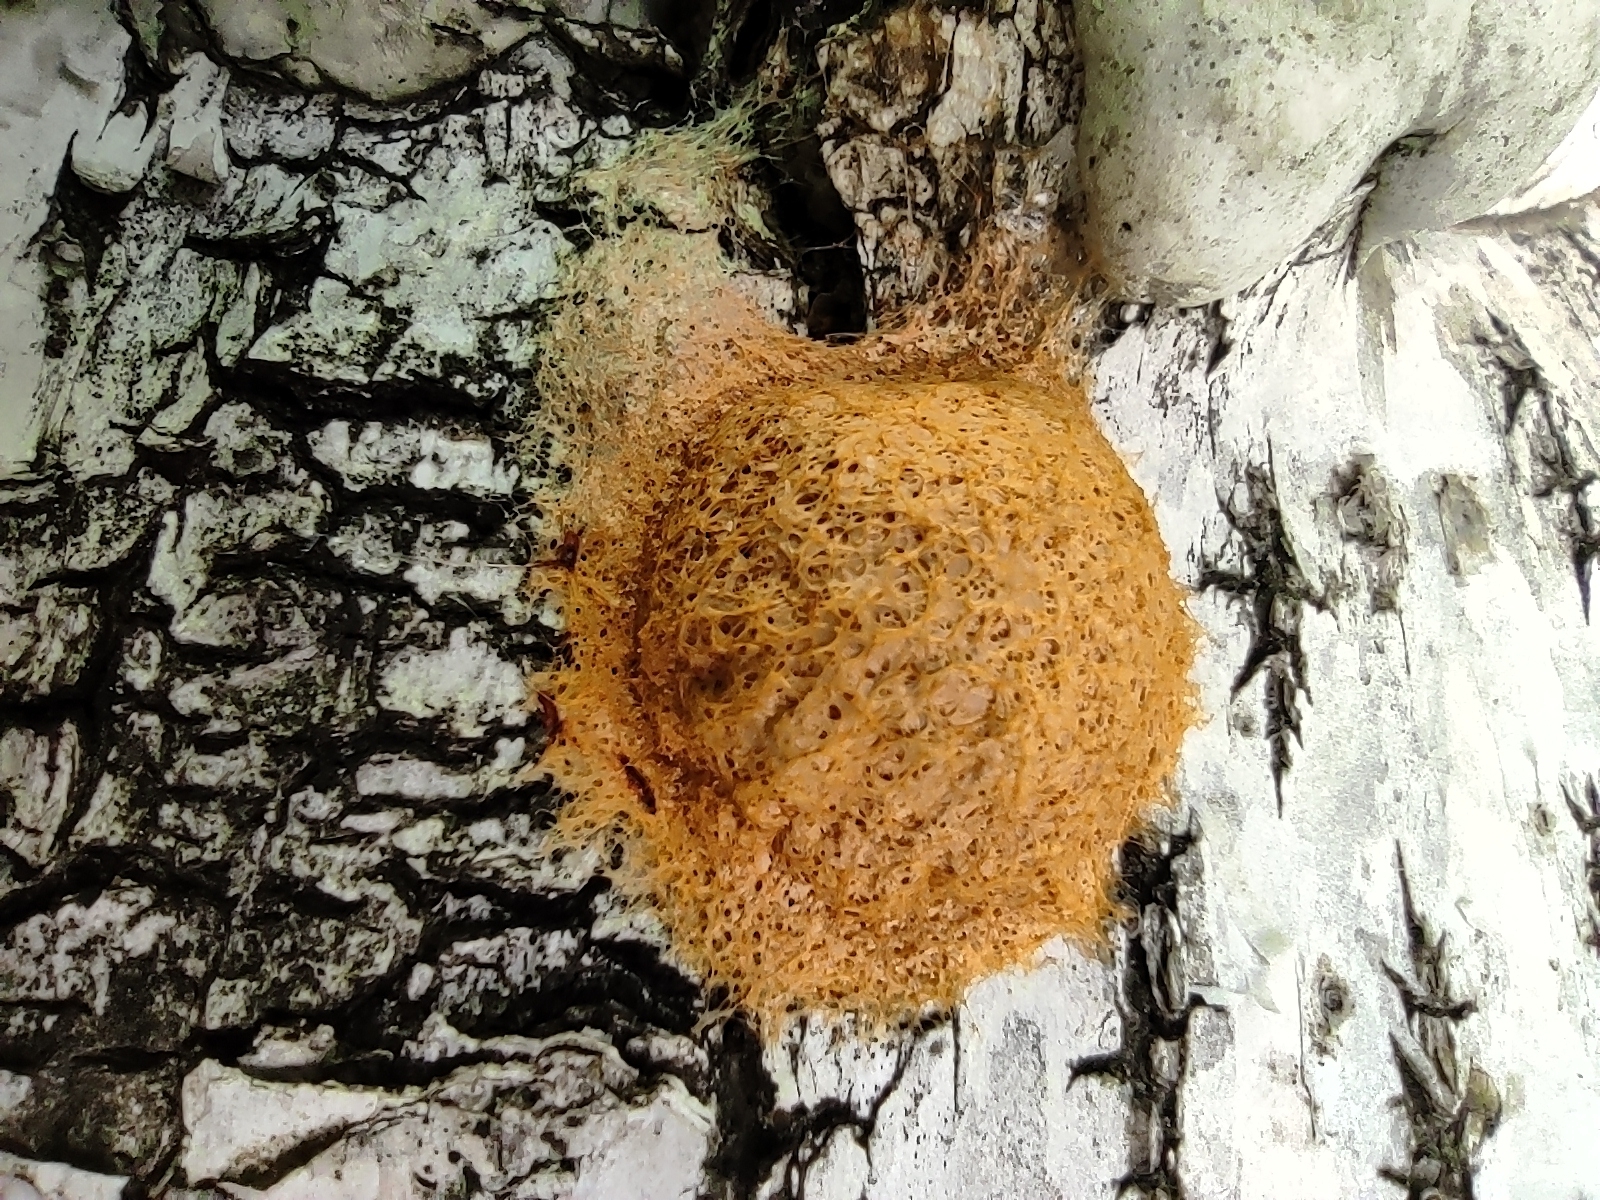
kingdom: Protozoa
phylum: Mycetozoa
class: Myxomycetes
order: Physarales
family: Physaraceae
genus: Fuligo
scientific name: Fuligo septica
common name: Dog vomit slime mold
